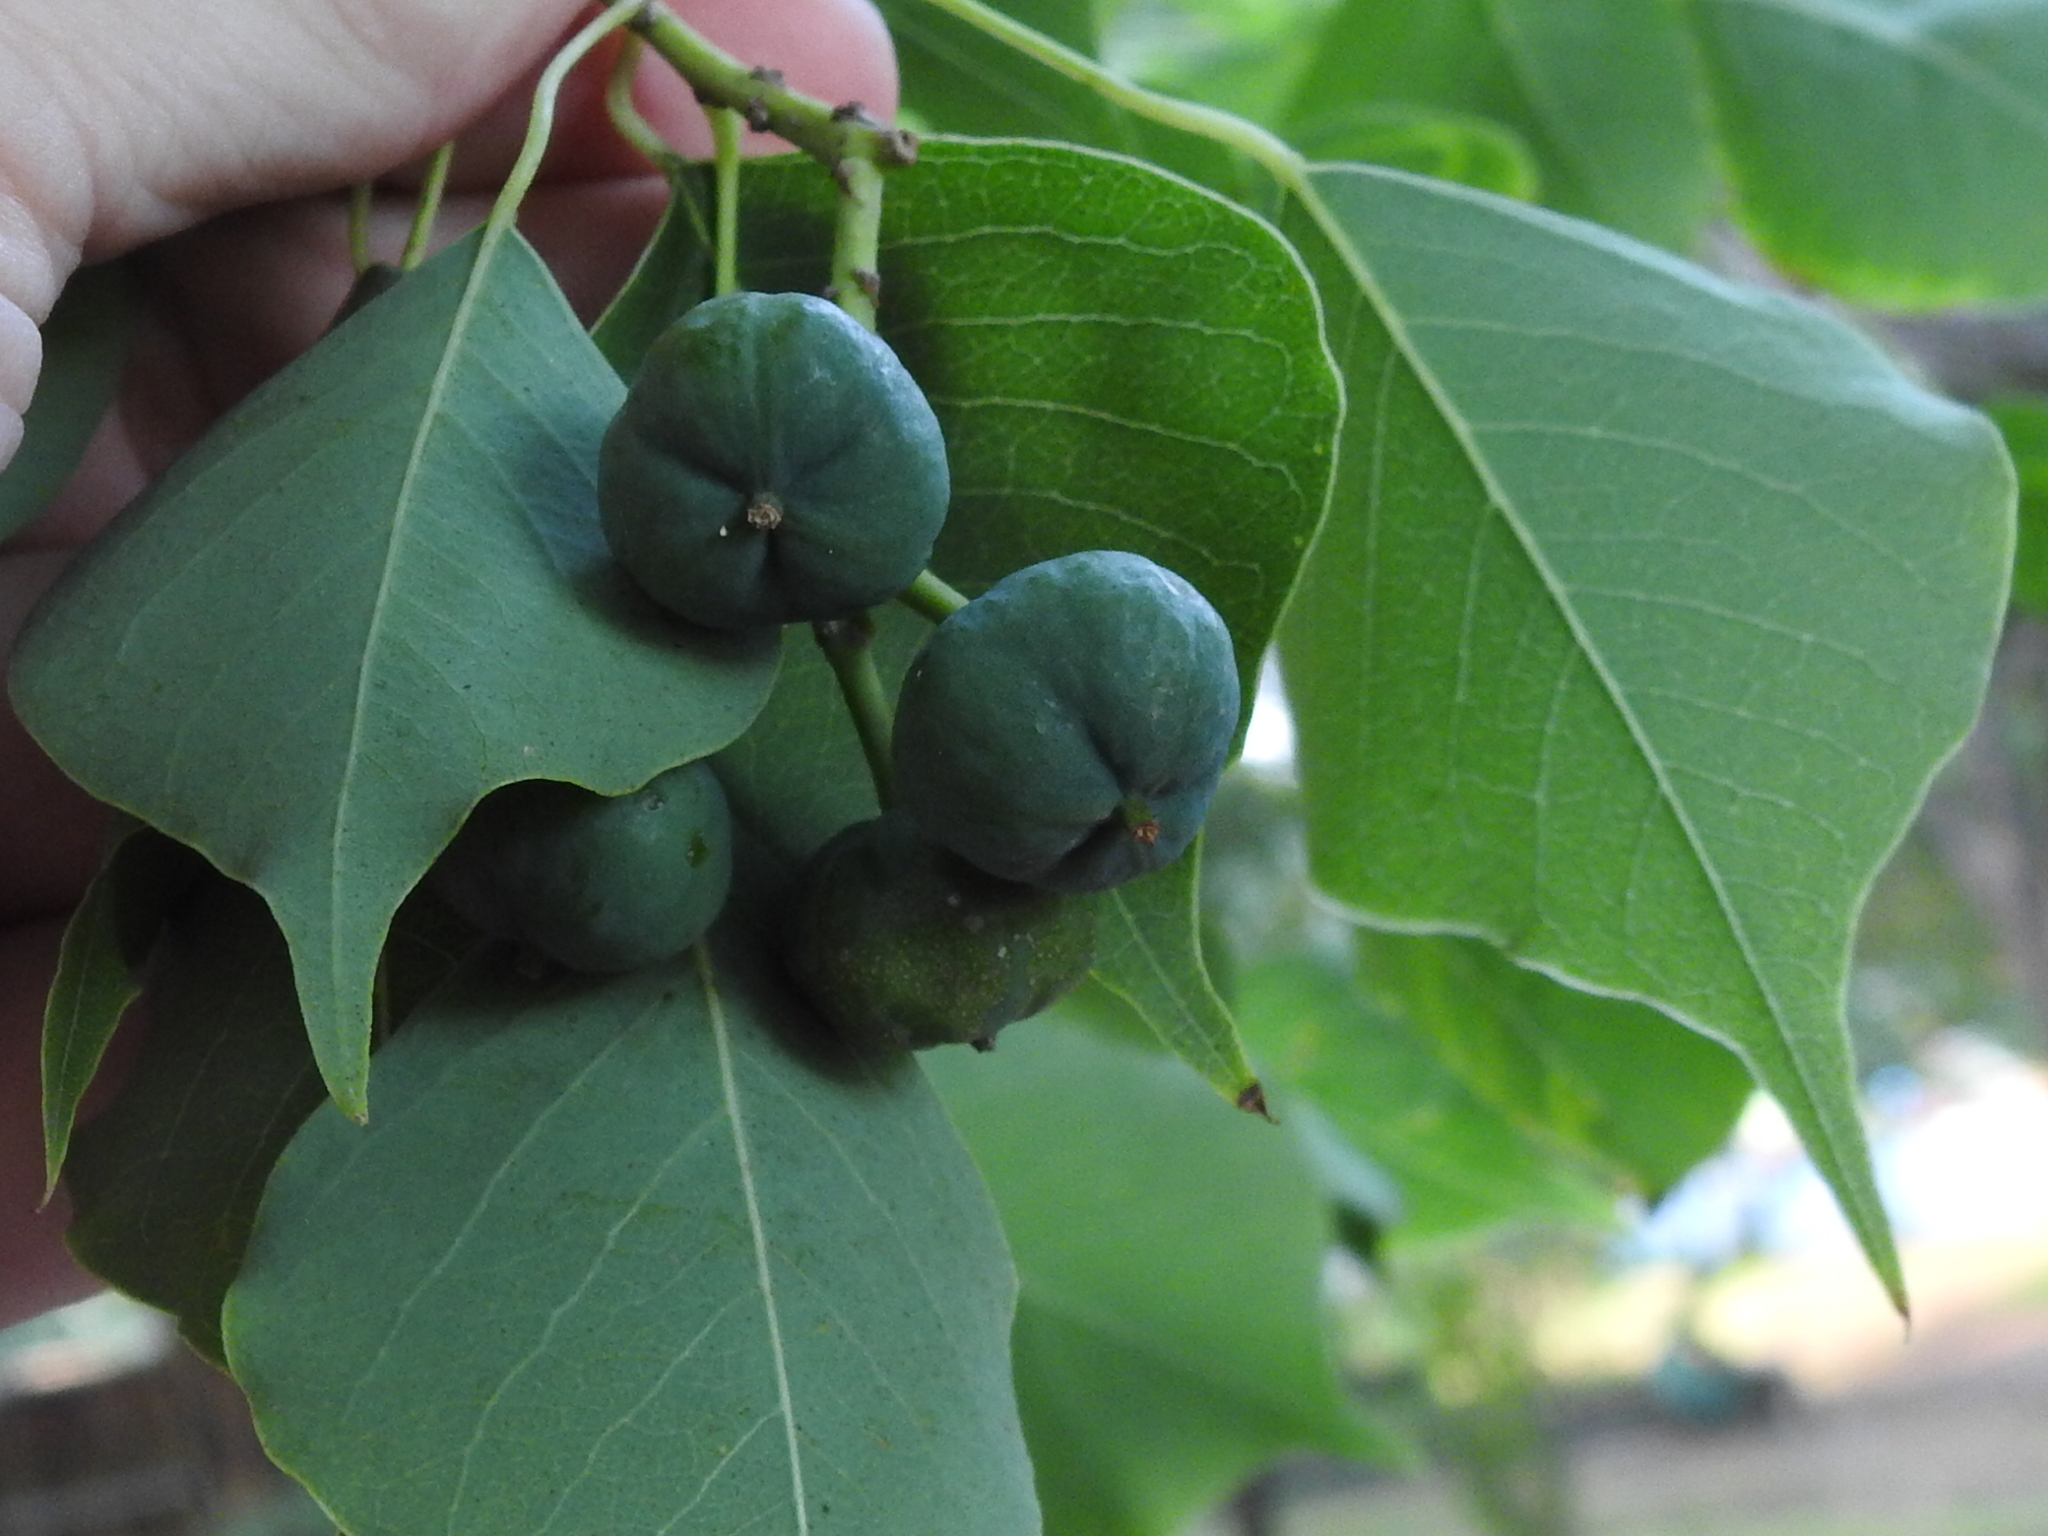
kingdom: Plantae
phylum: Tracheophyta
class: Magnoliopsida
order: Malpighiales
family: Euphorbiaceae
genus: Triadica
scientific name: Triadica sebifera
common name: Chinese tallow
